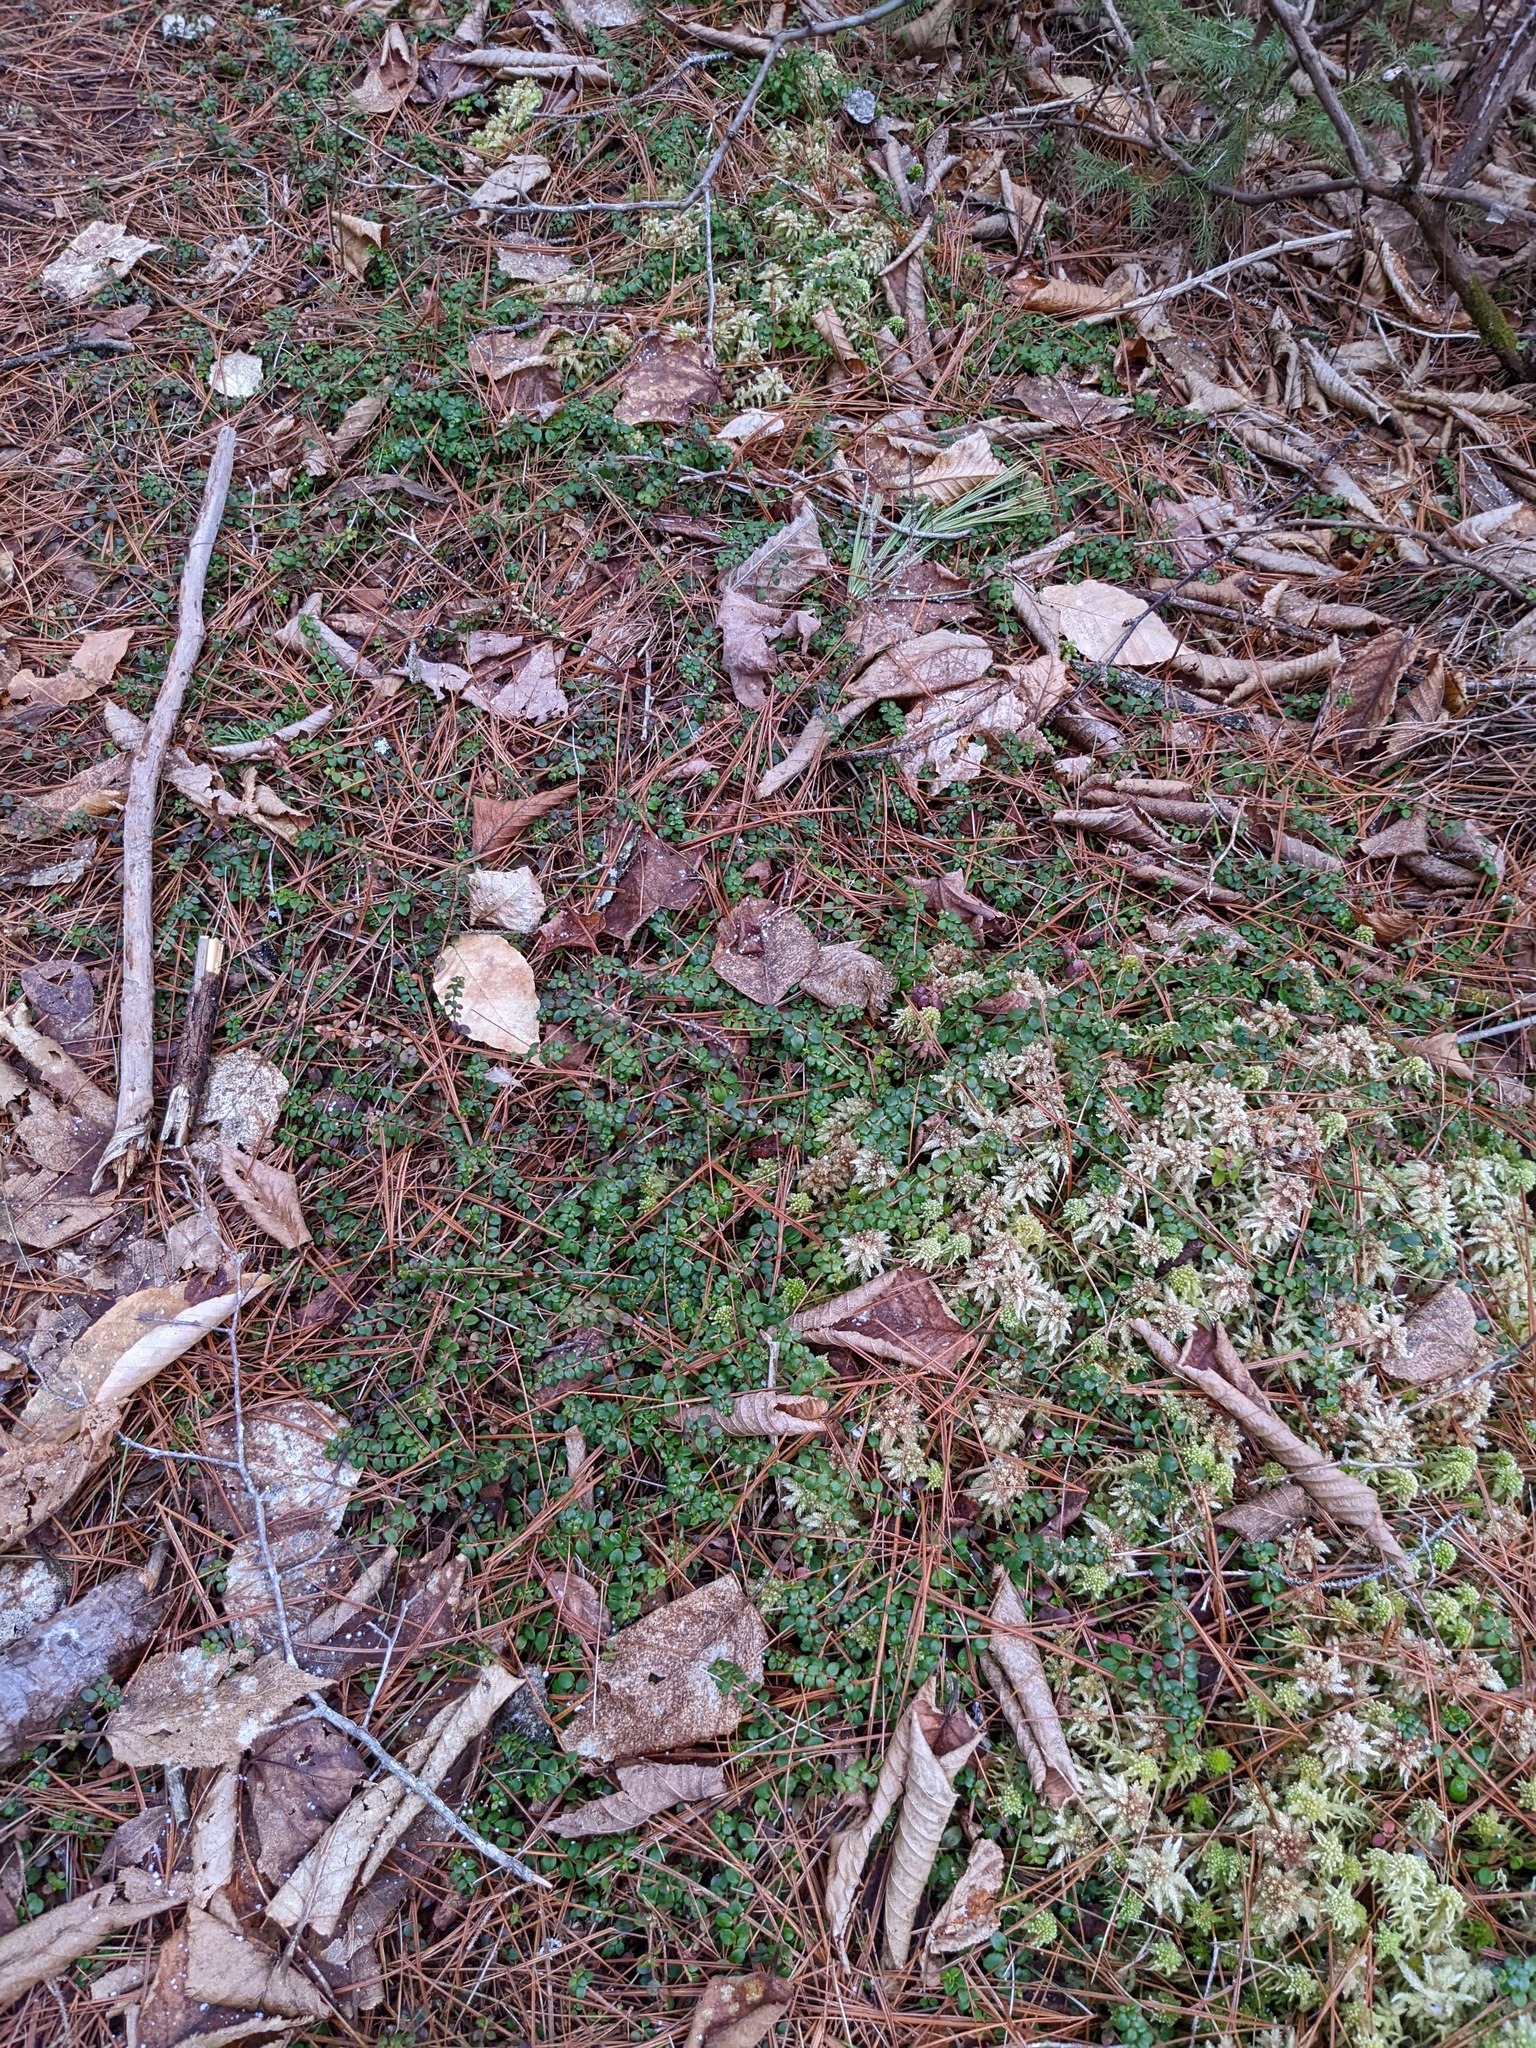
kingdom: Plantae
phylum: Tracheophyta
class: Magnoliopsida
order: Ericales
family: Ericaceae
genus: Gaultheria
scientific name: Gaultheria hispidula
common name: Cancer wintergreen
